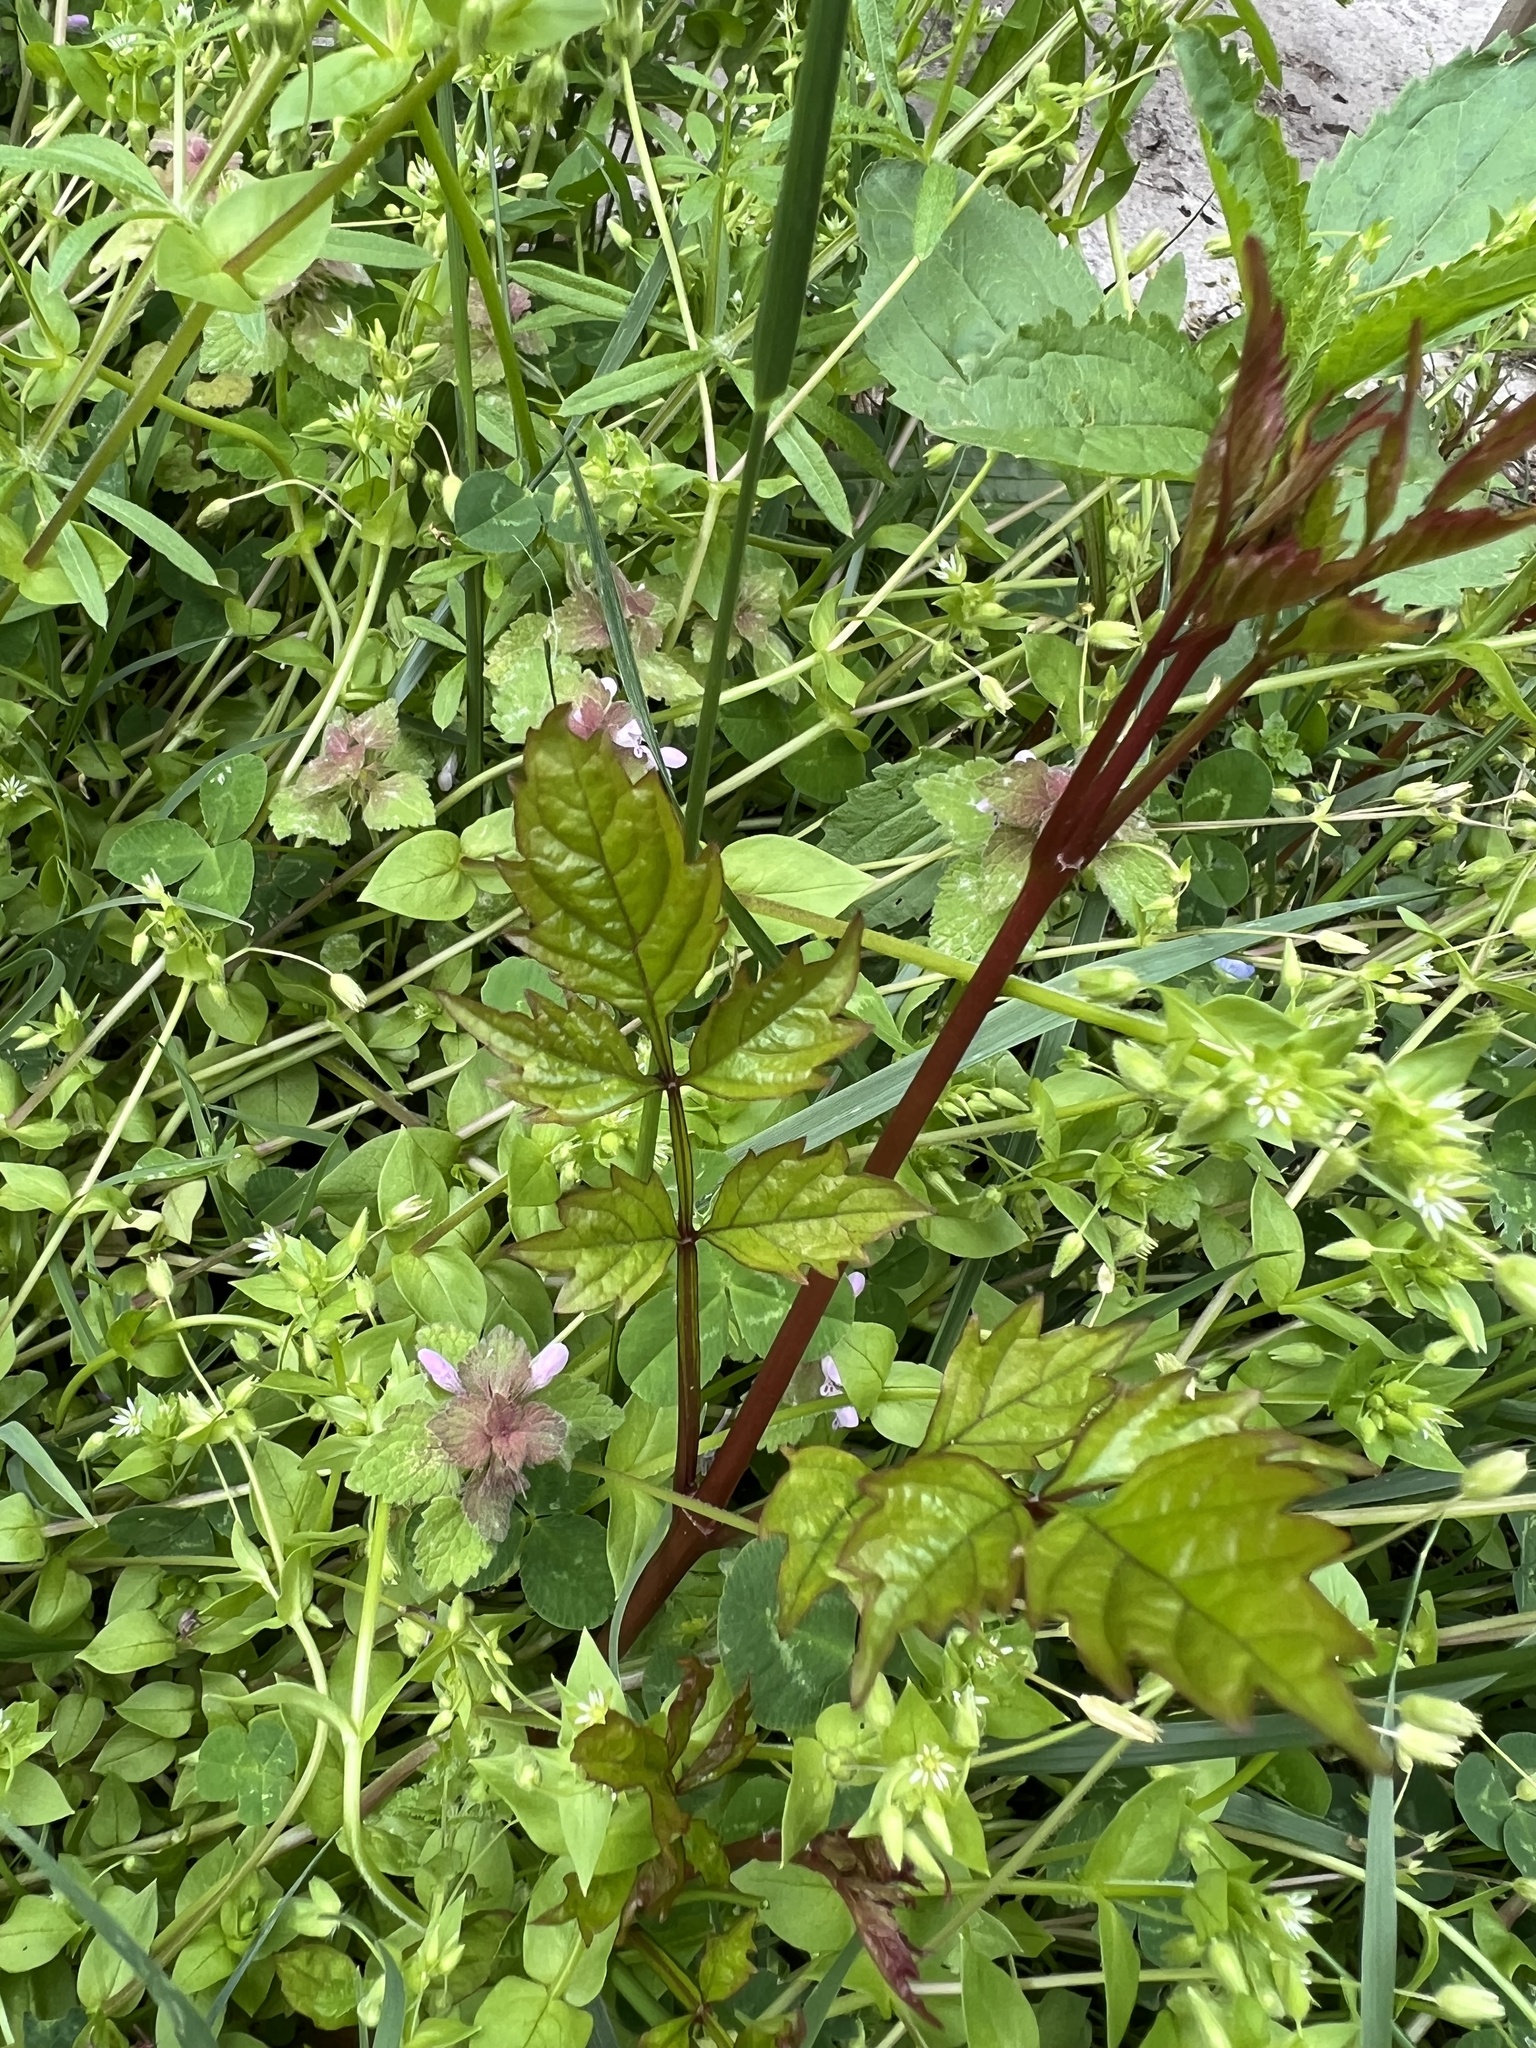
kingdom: Plantae
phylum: Tracheophyta
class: Magnoliopsida
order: Lamiales
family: Bignoniaceae
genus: Campsis
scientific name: Campsis radicans
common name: Trumpet-creeper
